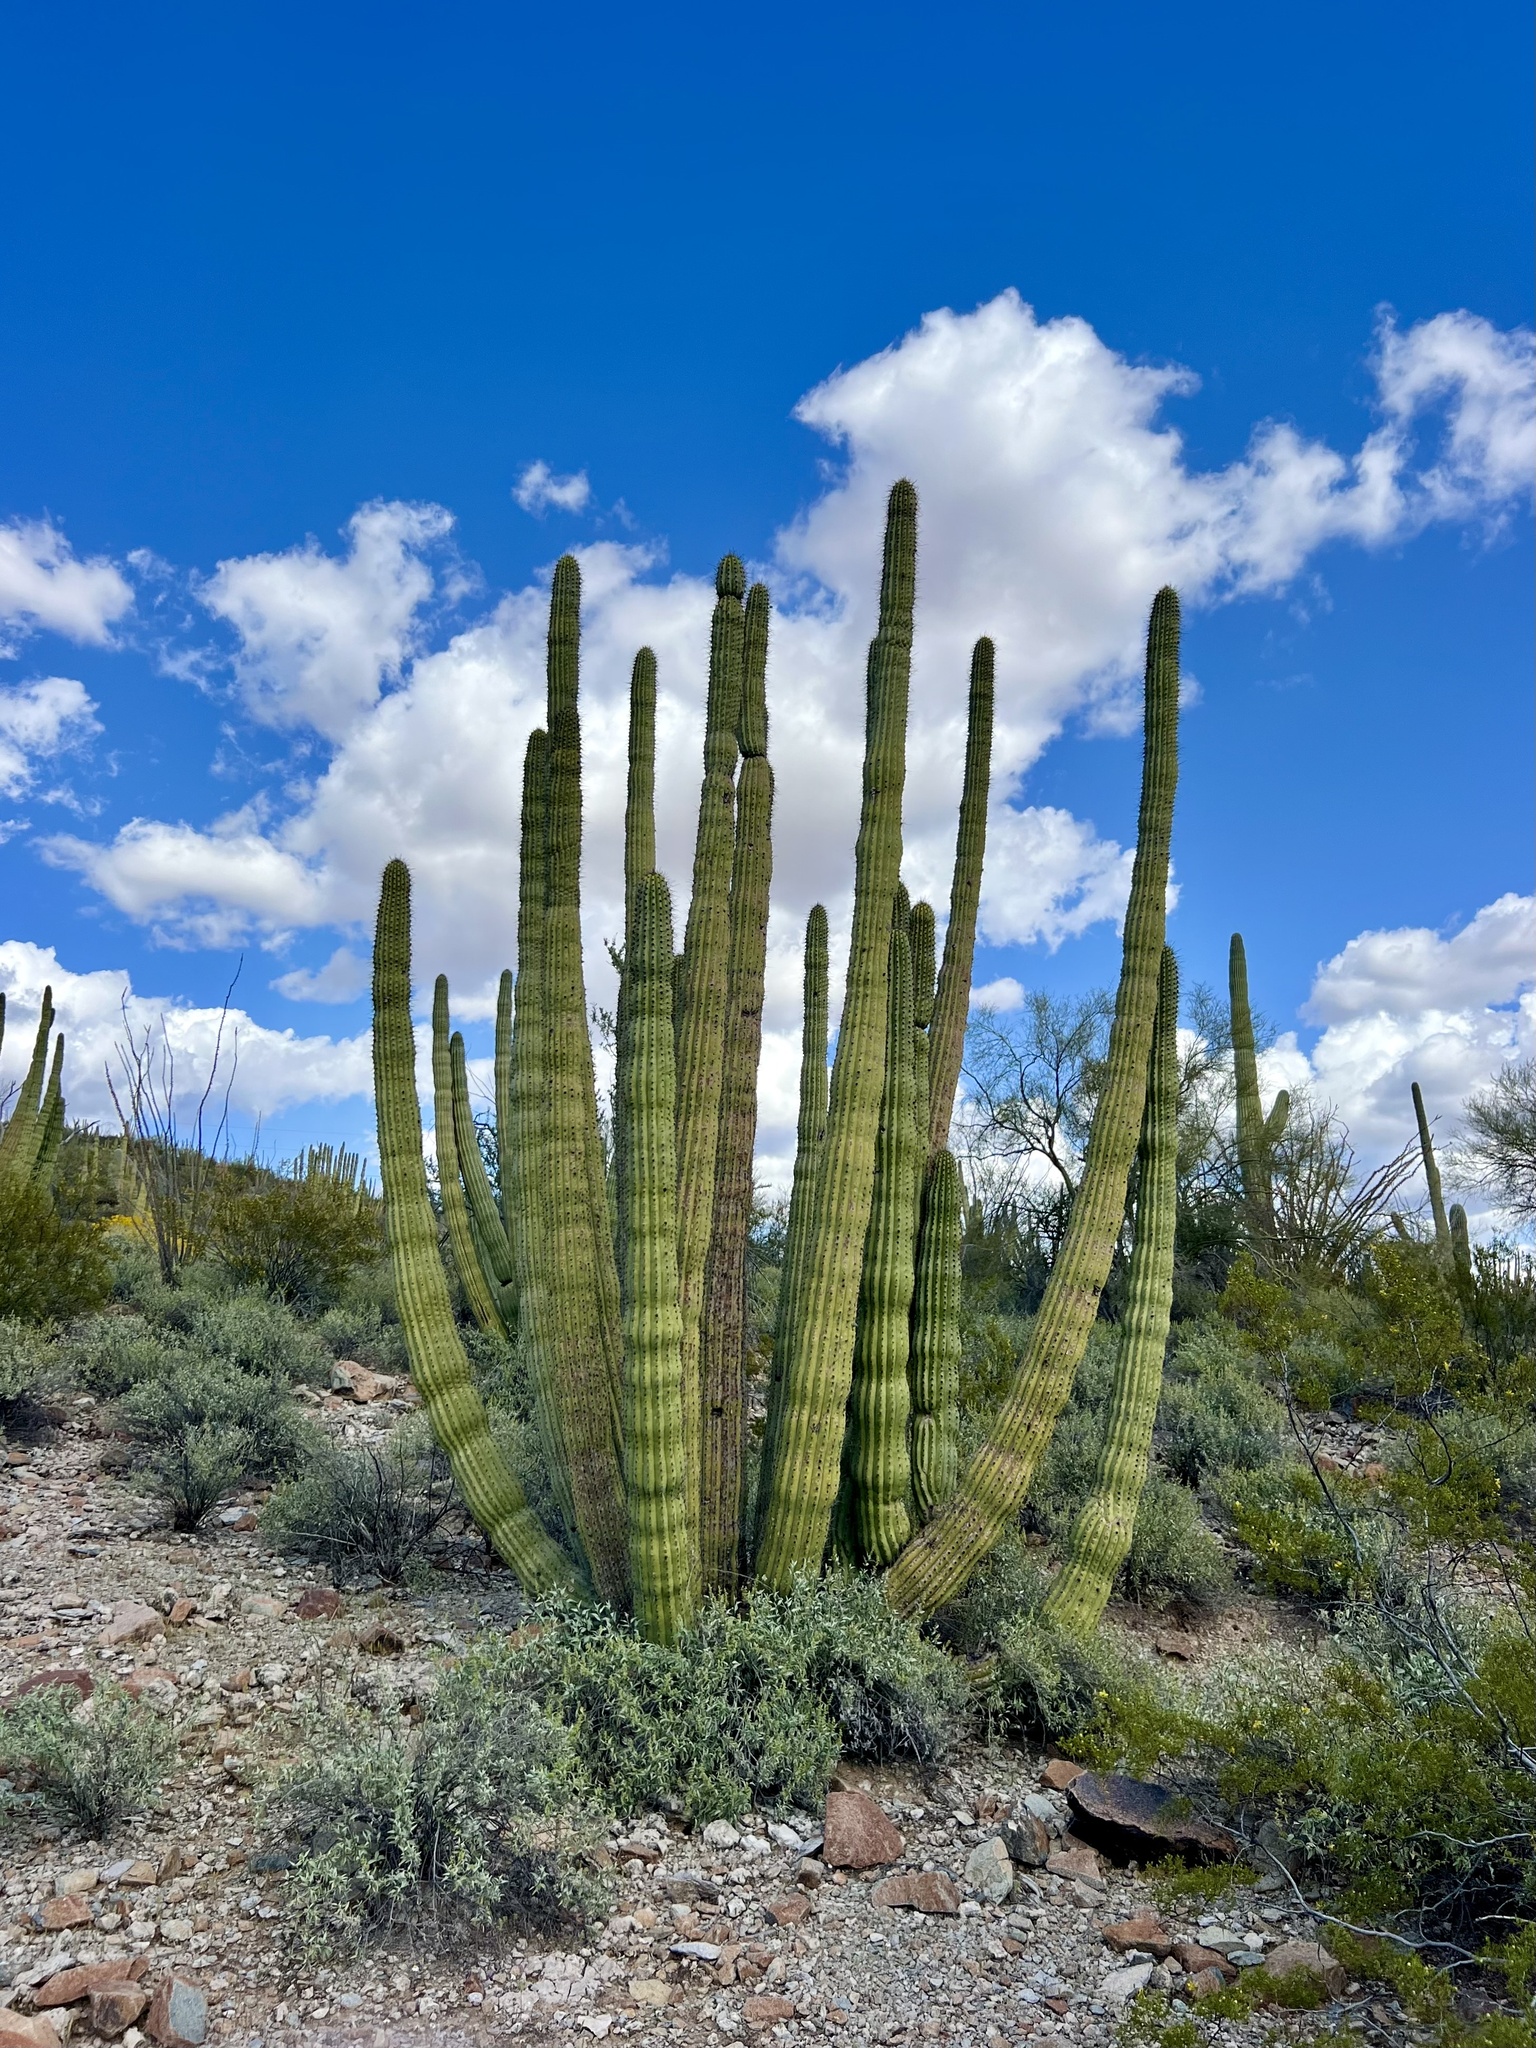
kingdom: Plantae
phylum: Tracheophyta
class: Magnoliopsida
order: Caryophyllales
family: Cactaceae
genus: Stenocereus
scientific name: Stenocereus thurberi
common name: Organ pipe cactus
